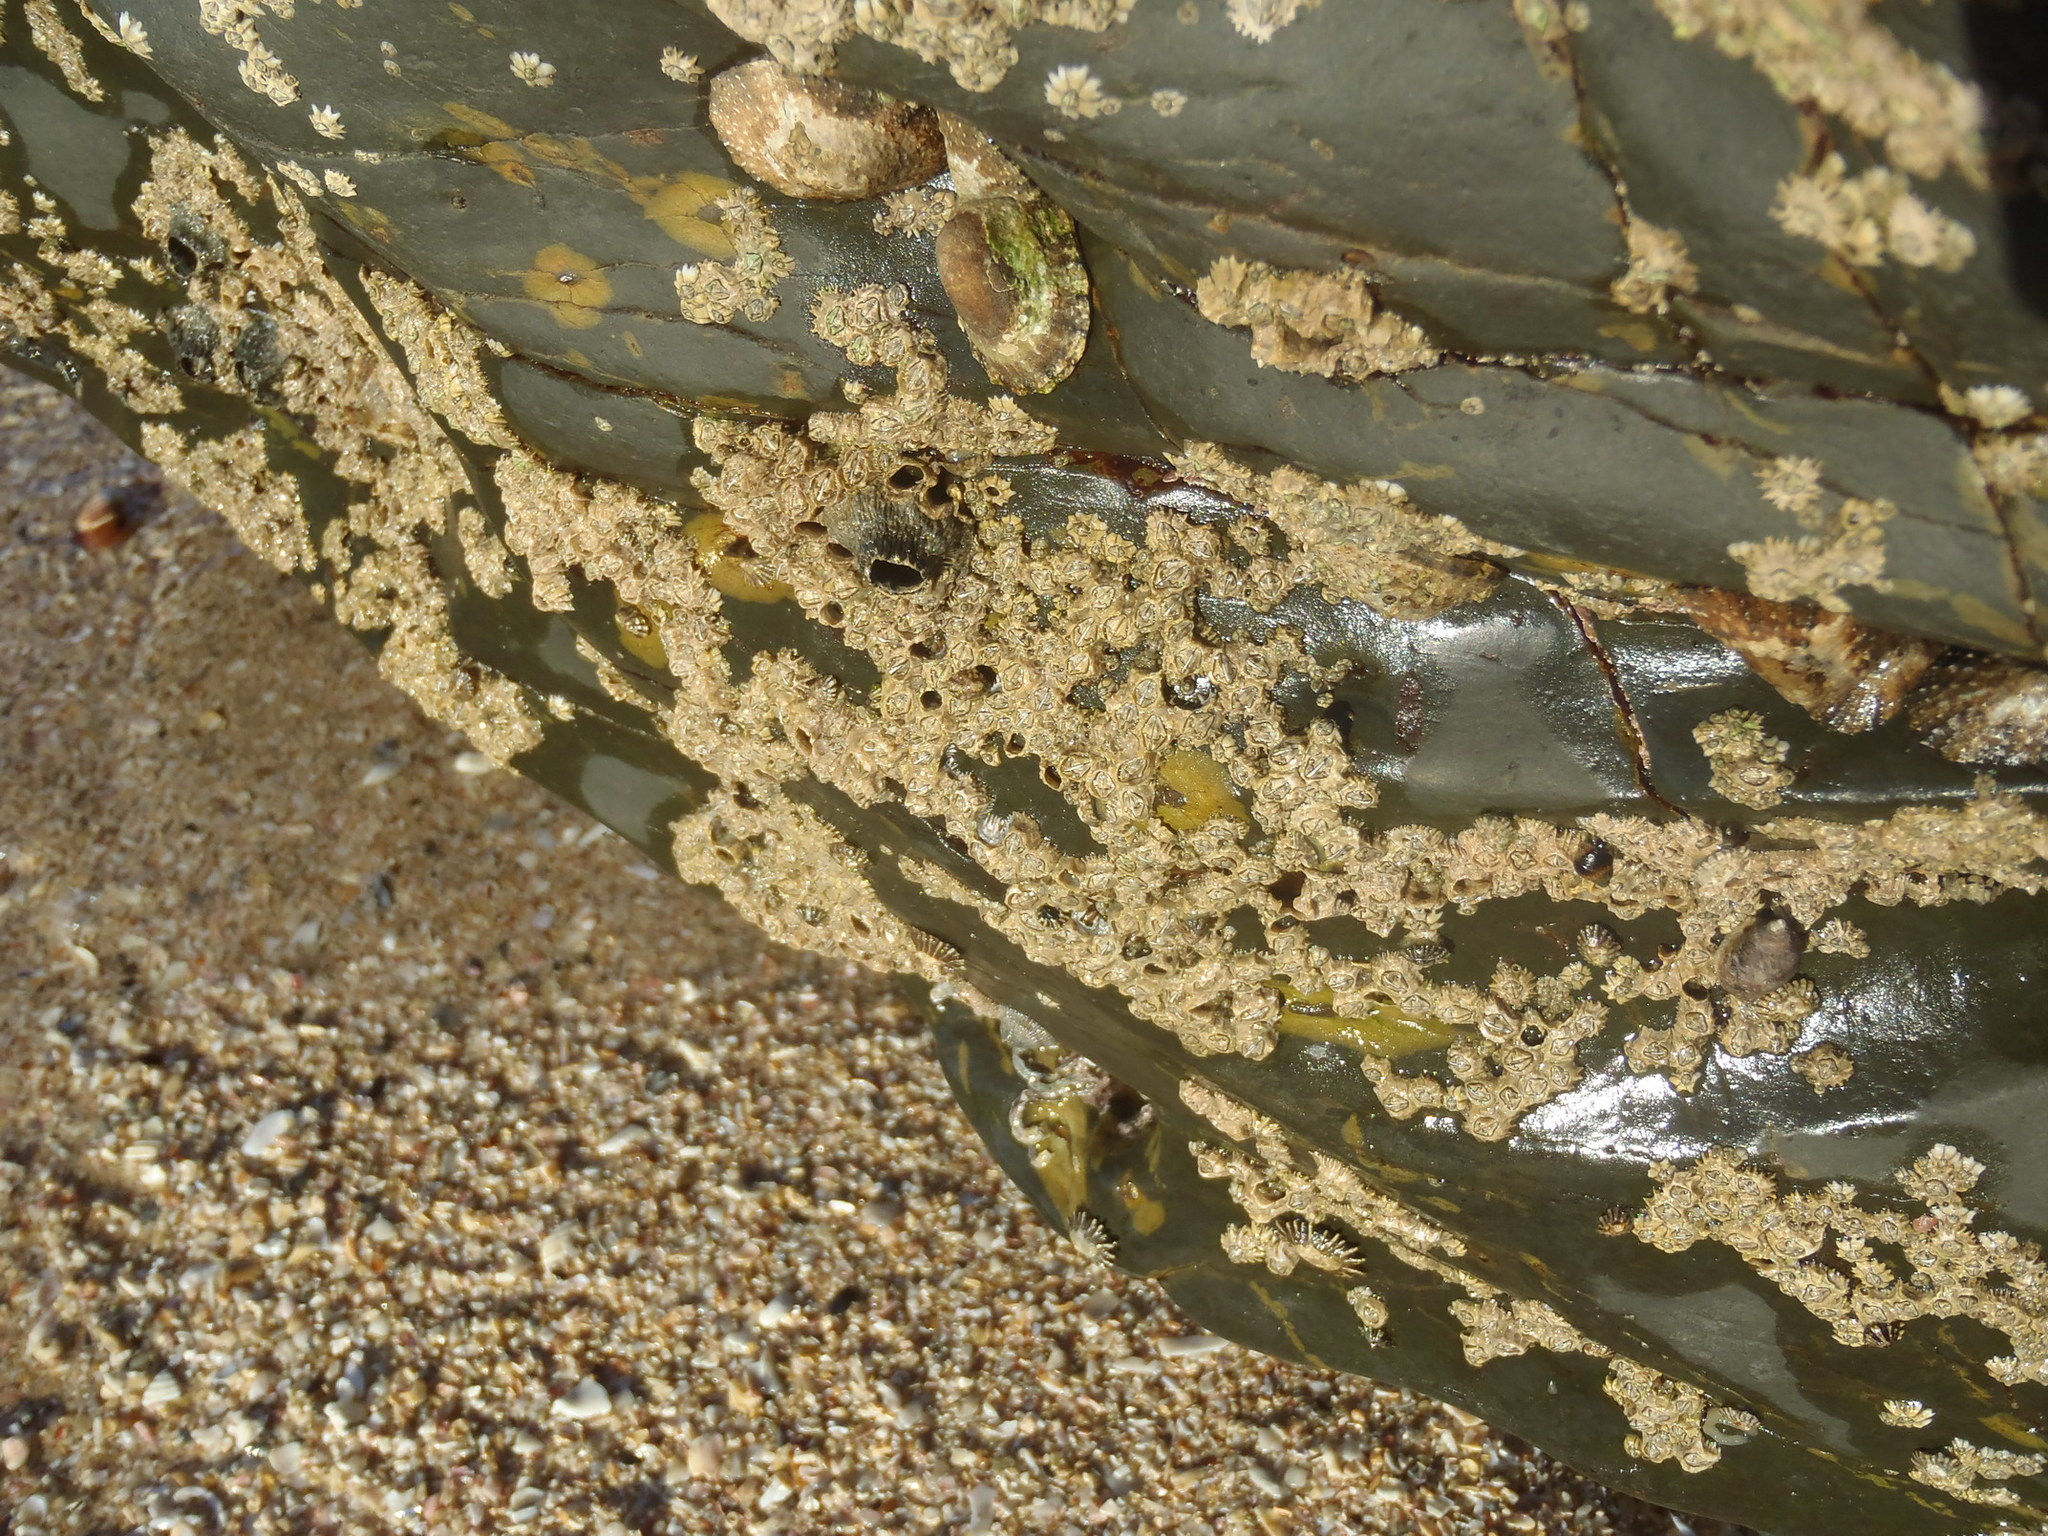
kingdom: Animalia
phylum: Arthropoda
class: Maxillopoda
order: Sessilia
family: Chthamalidae
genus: Chthamalus
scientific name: Chthamalus dentatus
